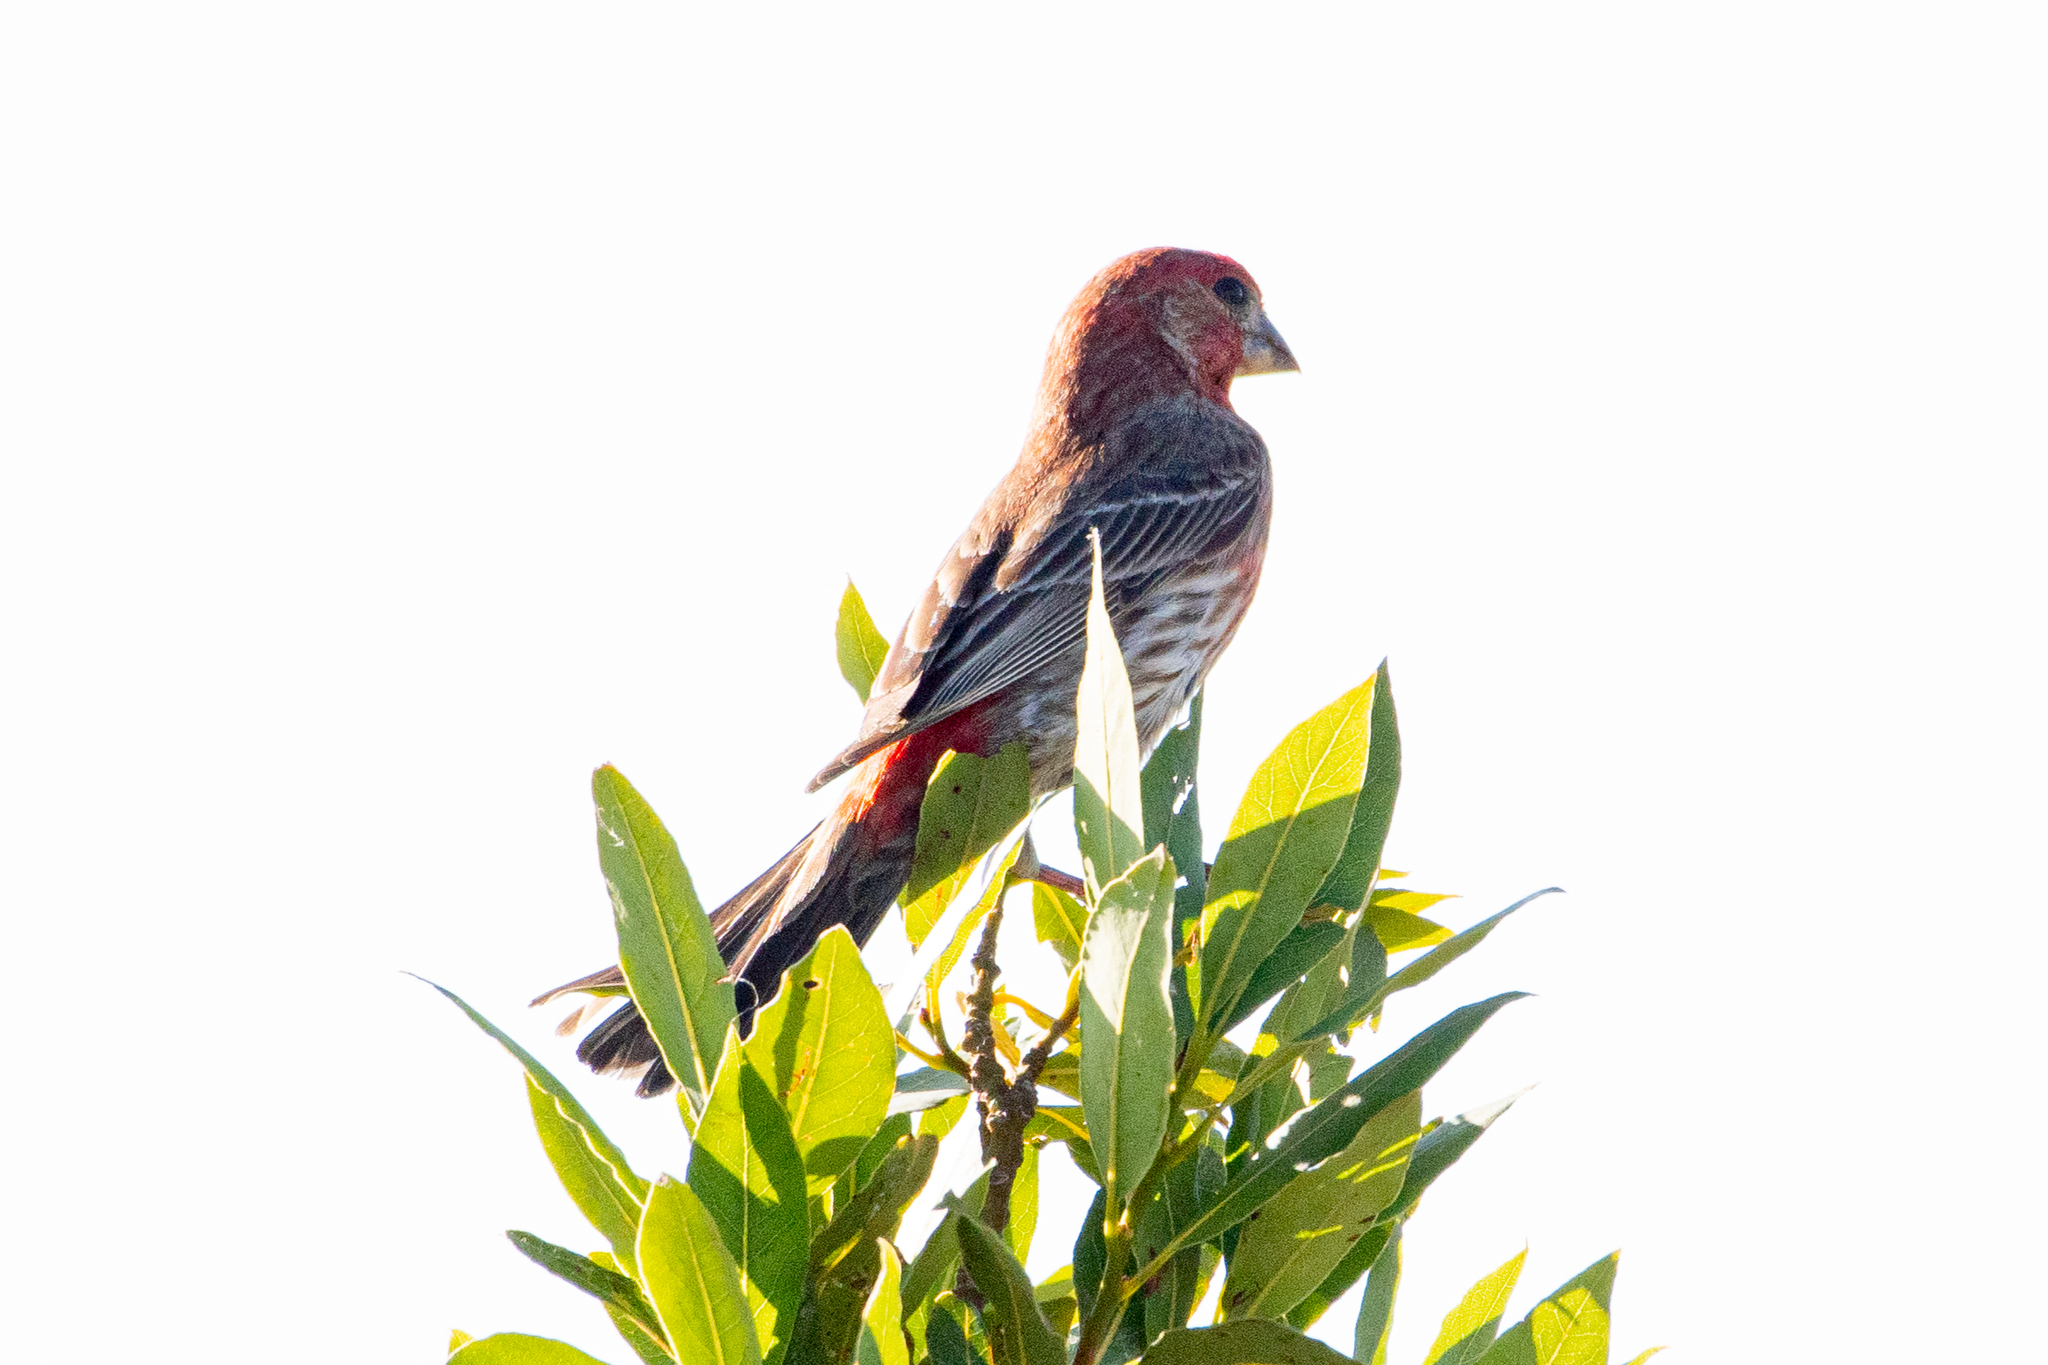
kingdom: Animalia
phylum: Chordata
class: Aves
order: Passeriformes
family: Fringillidae
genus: Haemorhous
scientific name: Haemorhous mexicanus
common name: House finch
